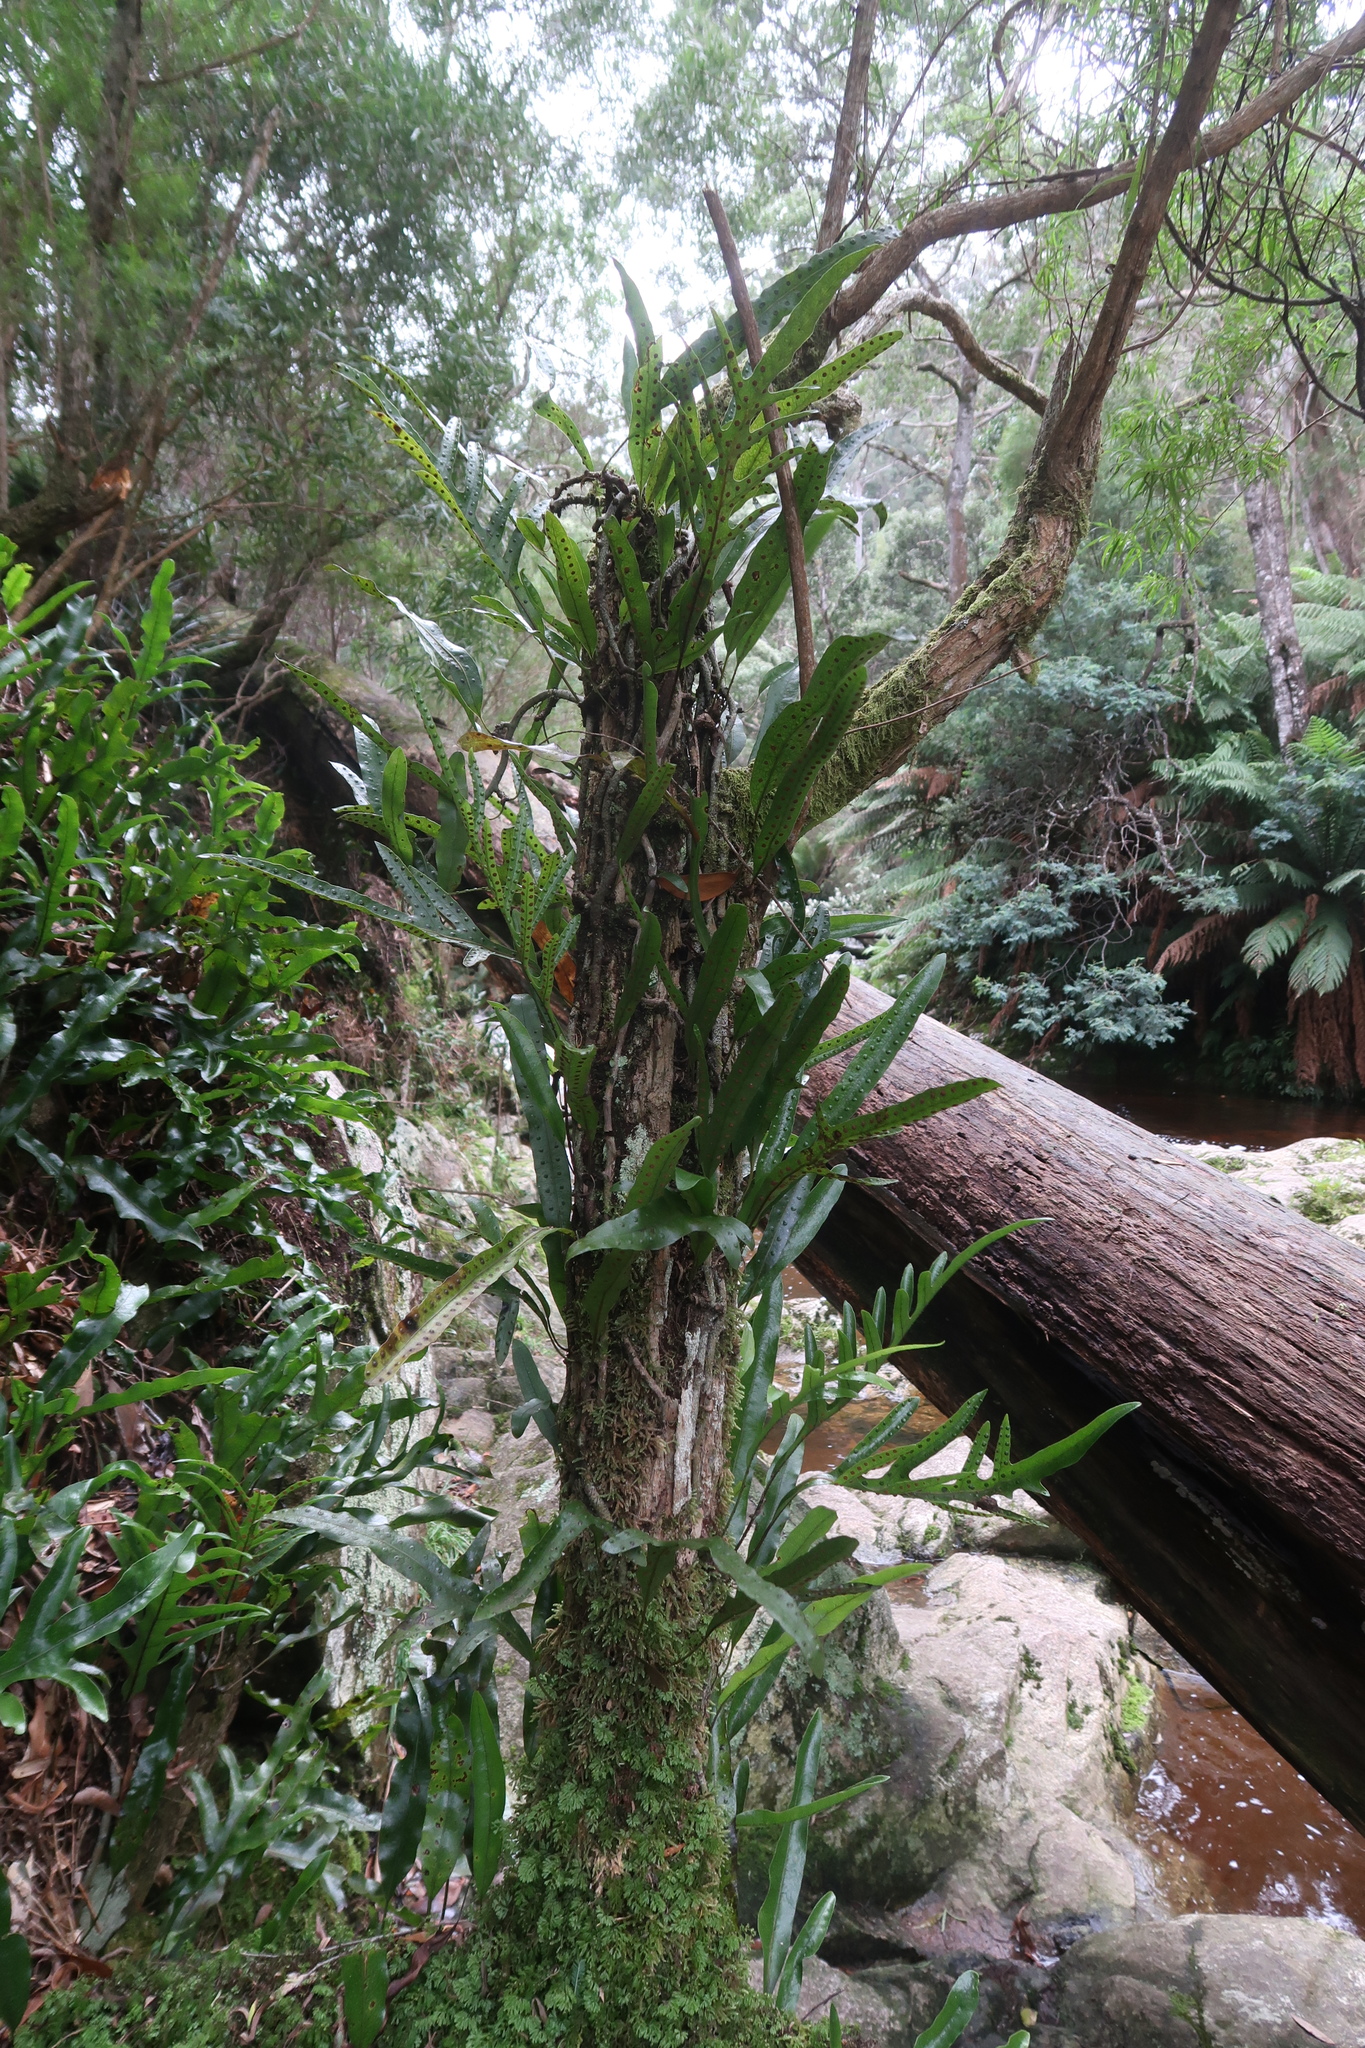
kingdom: Plantae
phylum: Tracheophyta
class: Polypodiopsida
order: Polypodiales
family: Polypodiaceae
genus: Lecanopteris
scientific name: Lecanopteris pustulata
